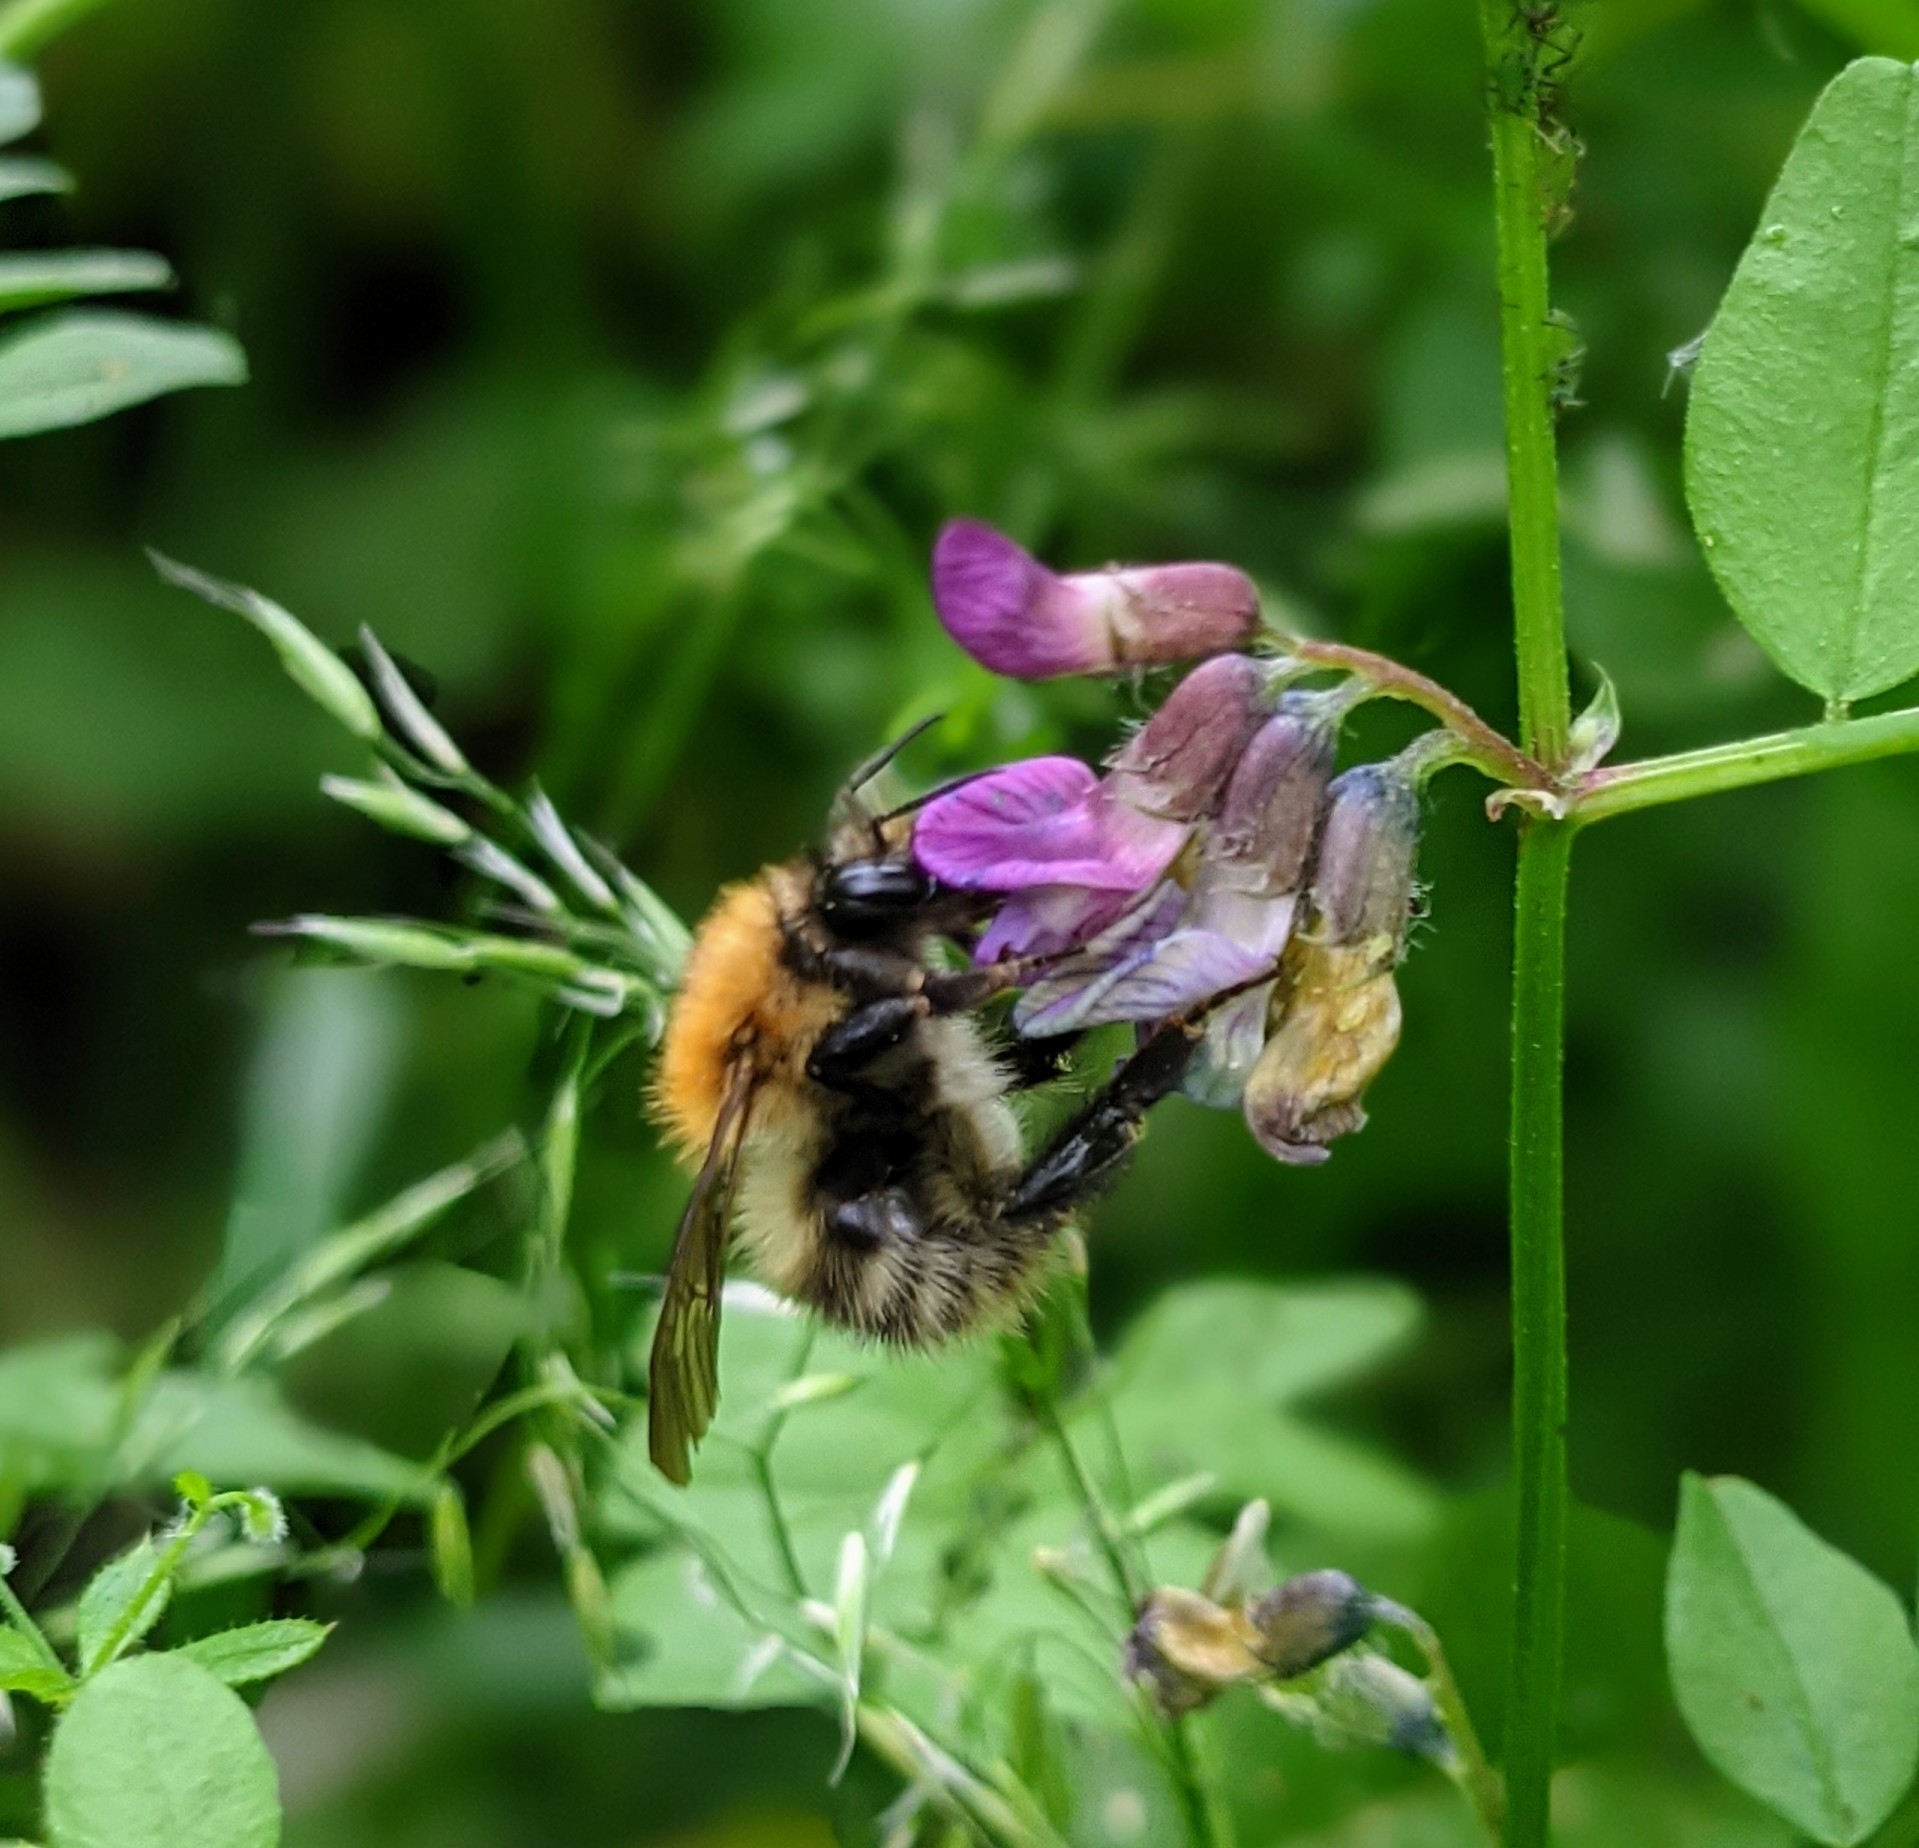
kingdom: Animalia
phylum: Arthropoda
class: Insecta
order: Hymenoptera
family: Apidae
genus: Bombus
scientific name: Bombus pascuorum
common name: Common carder bee
